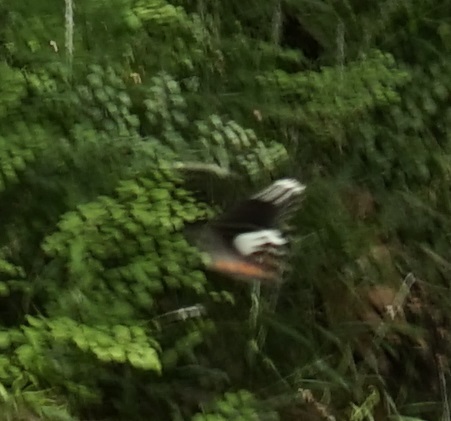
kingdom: Animalia
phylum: Arthropoda
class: Insecta
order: Lepidoptera
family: Papilionidae
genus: Papilio
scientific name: Papilio aegeus
